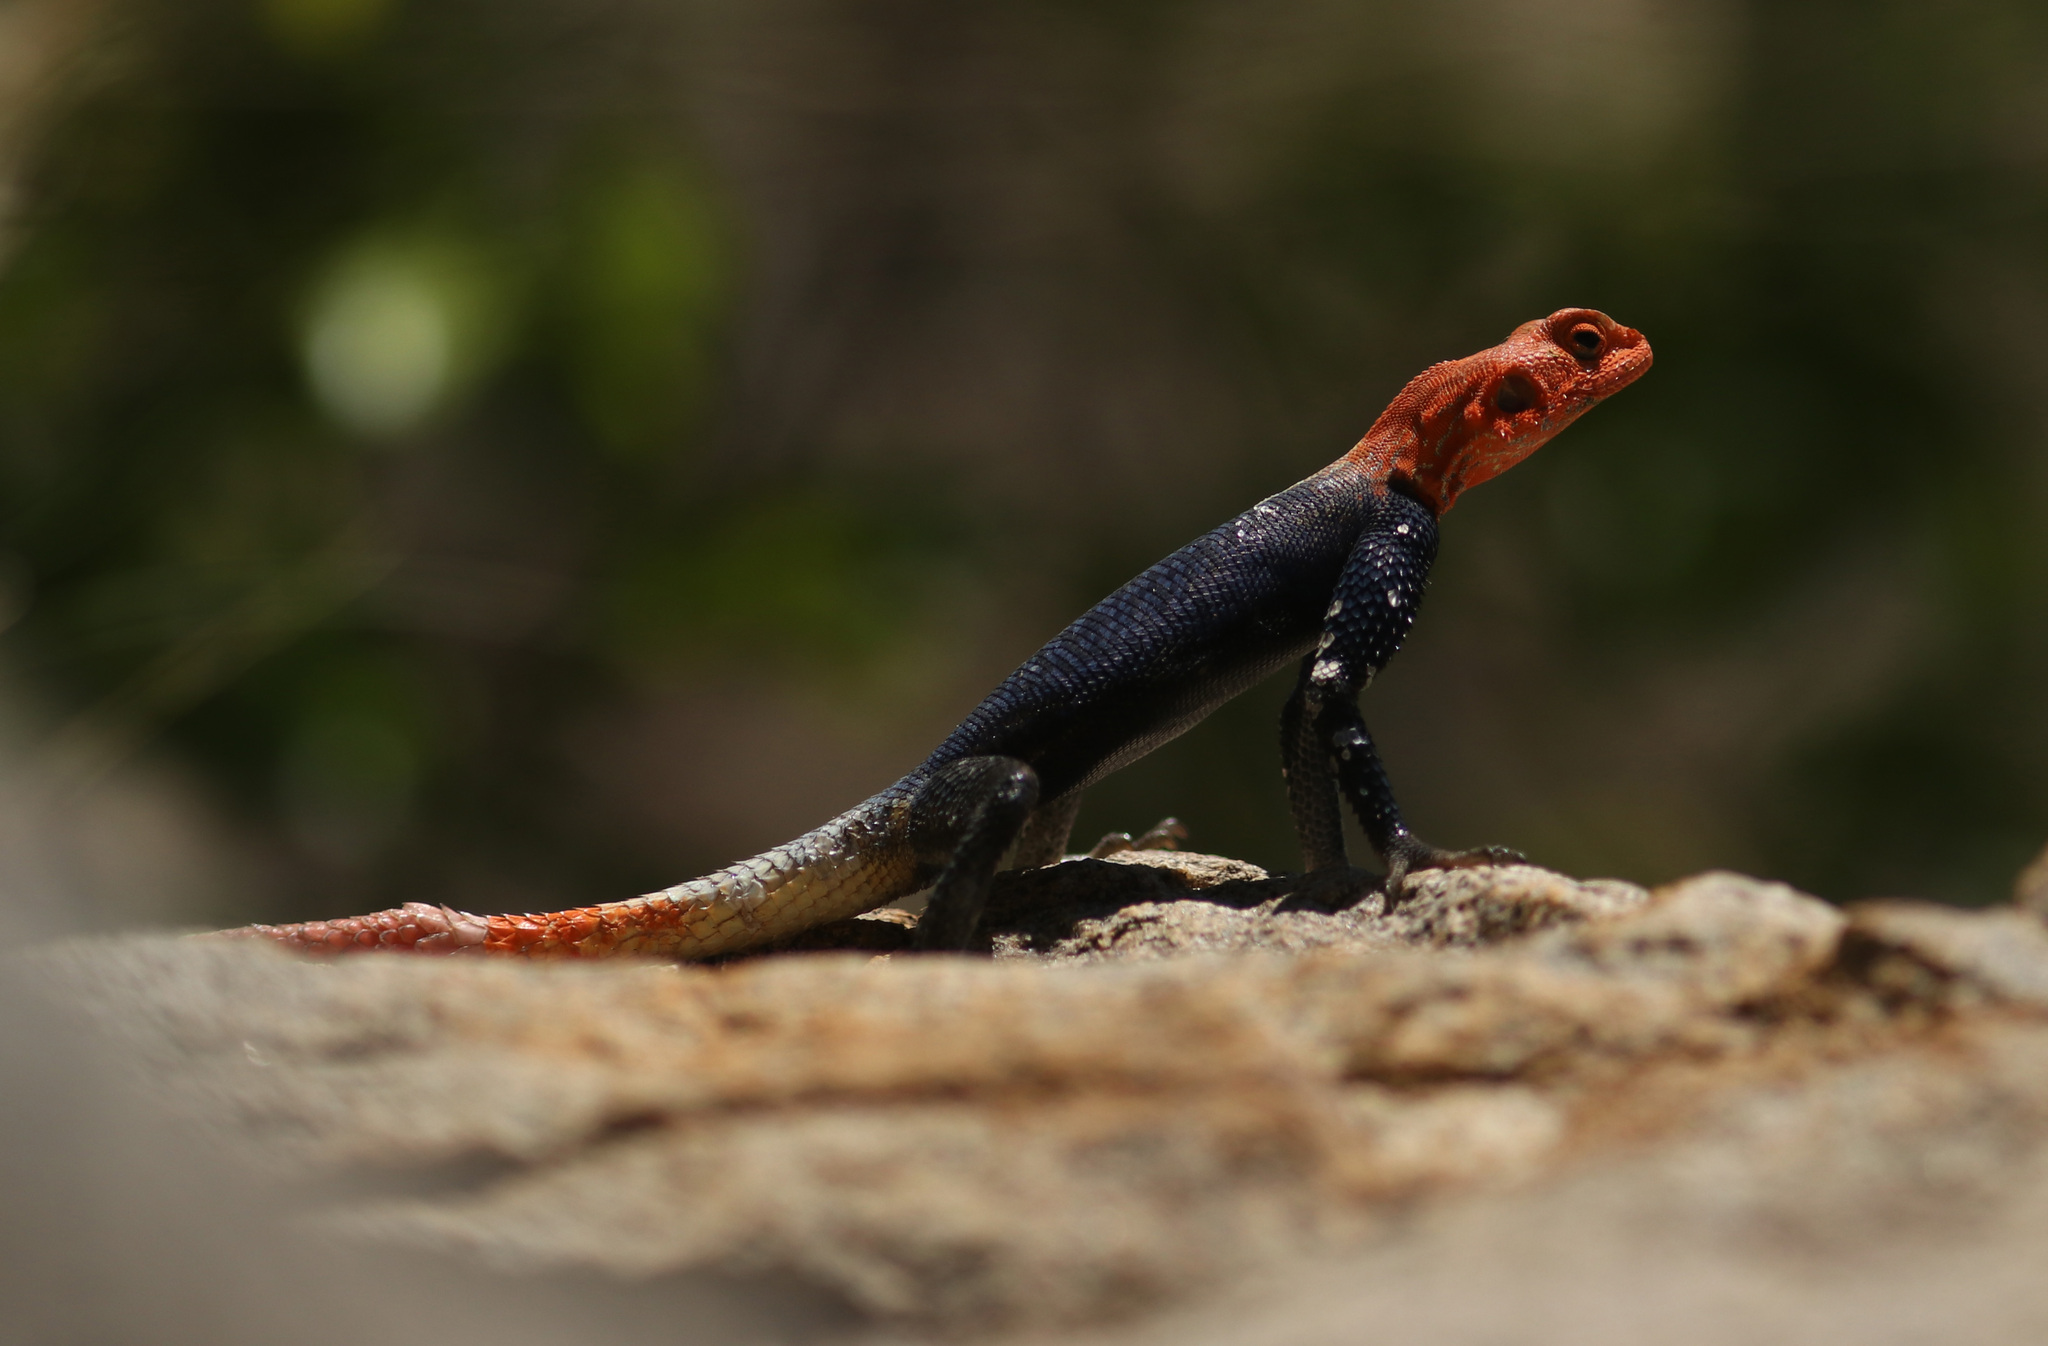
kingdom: Animalia
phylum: Chordata
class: Squamata
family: Agamidae
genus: Agama
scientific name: Agama planiceps
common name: Namib rock agama
